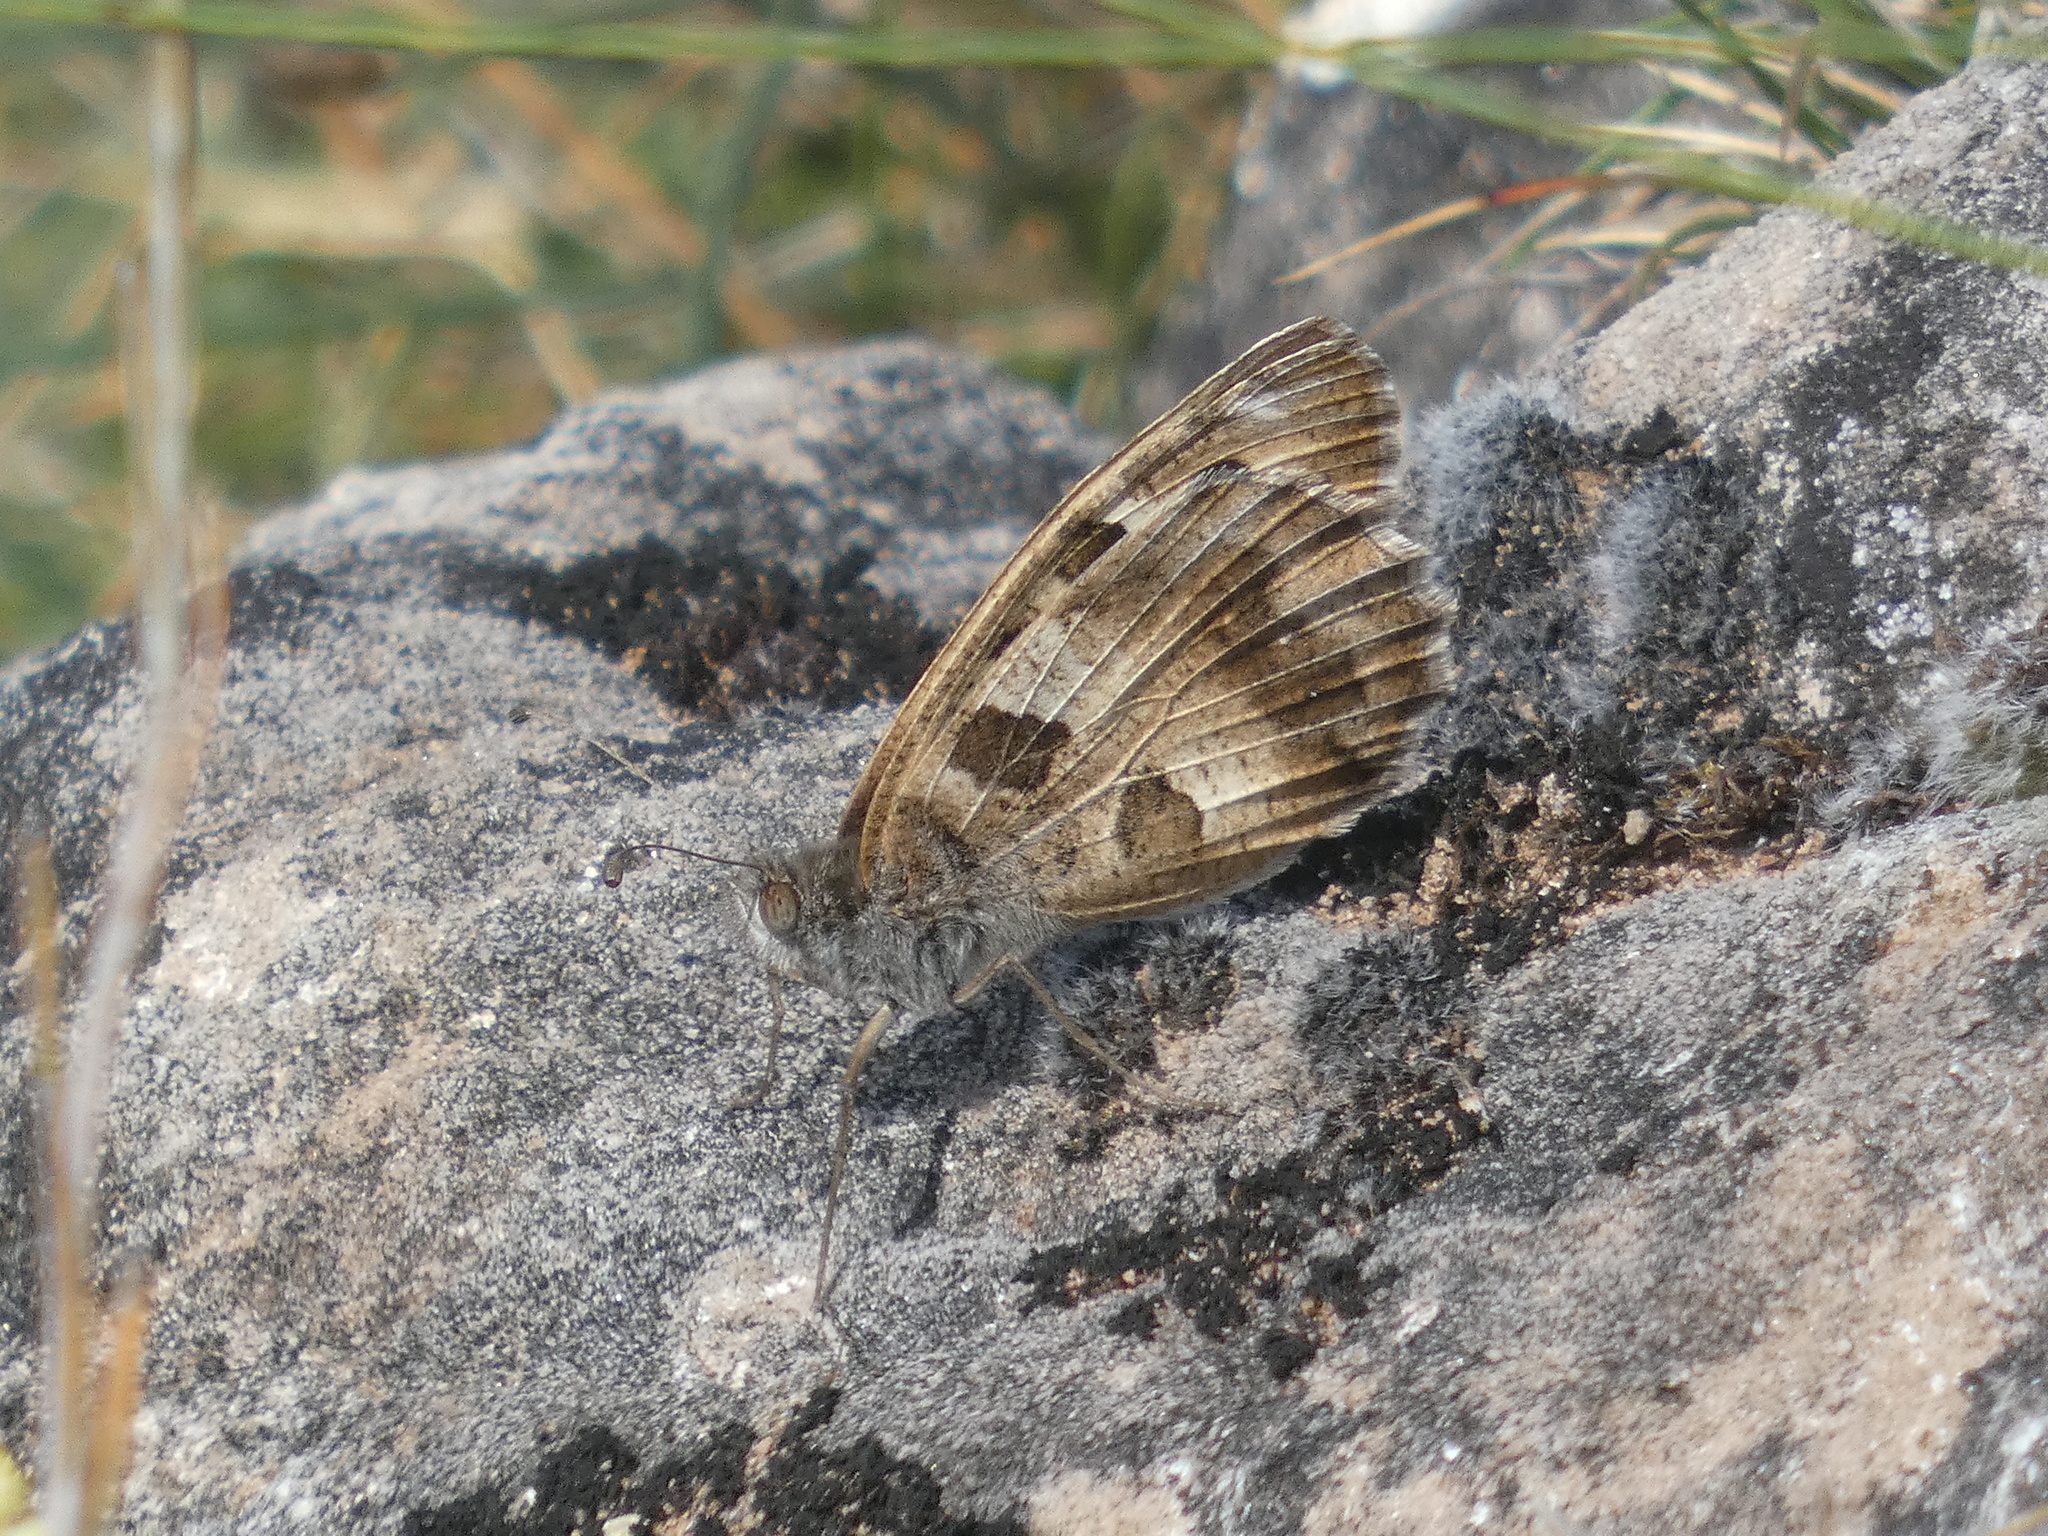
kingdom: Animalia
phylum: Arthropoda
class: Insecta
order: Lepidoptera
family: Nymphalidae
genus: Satyrus
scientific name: Satyrus briseis
